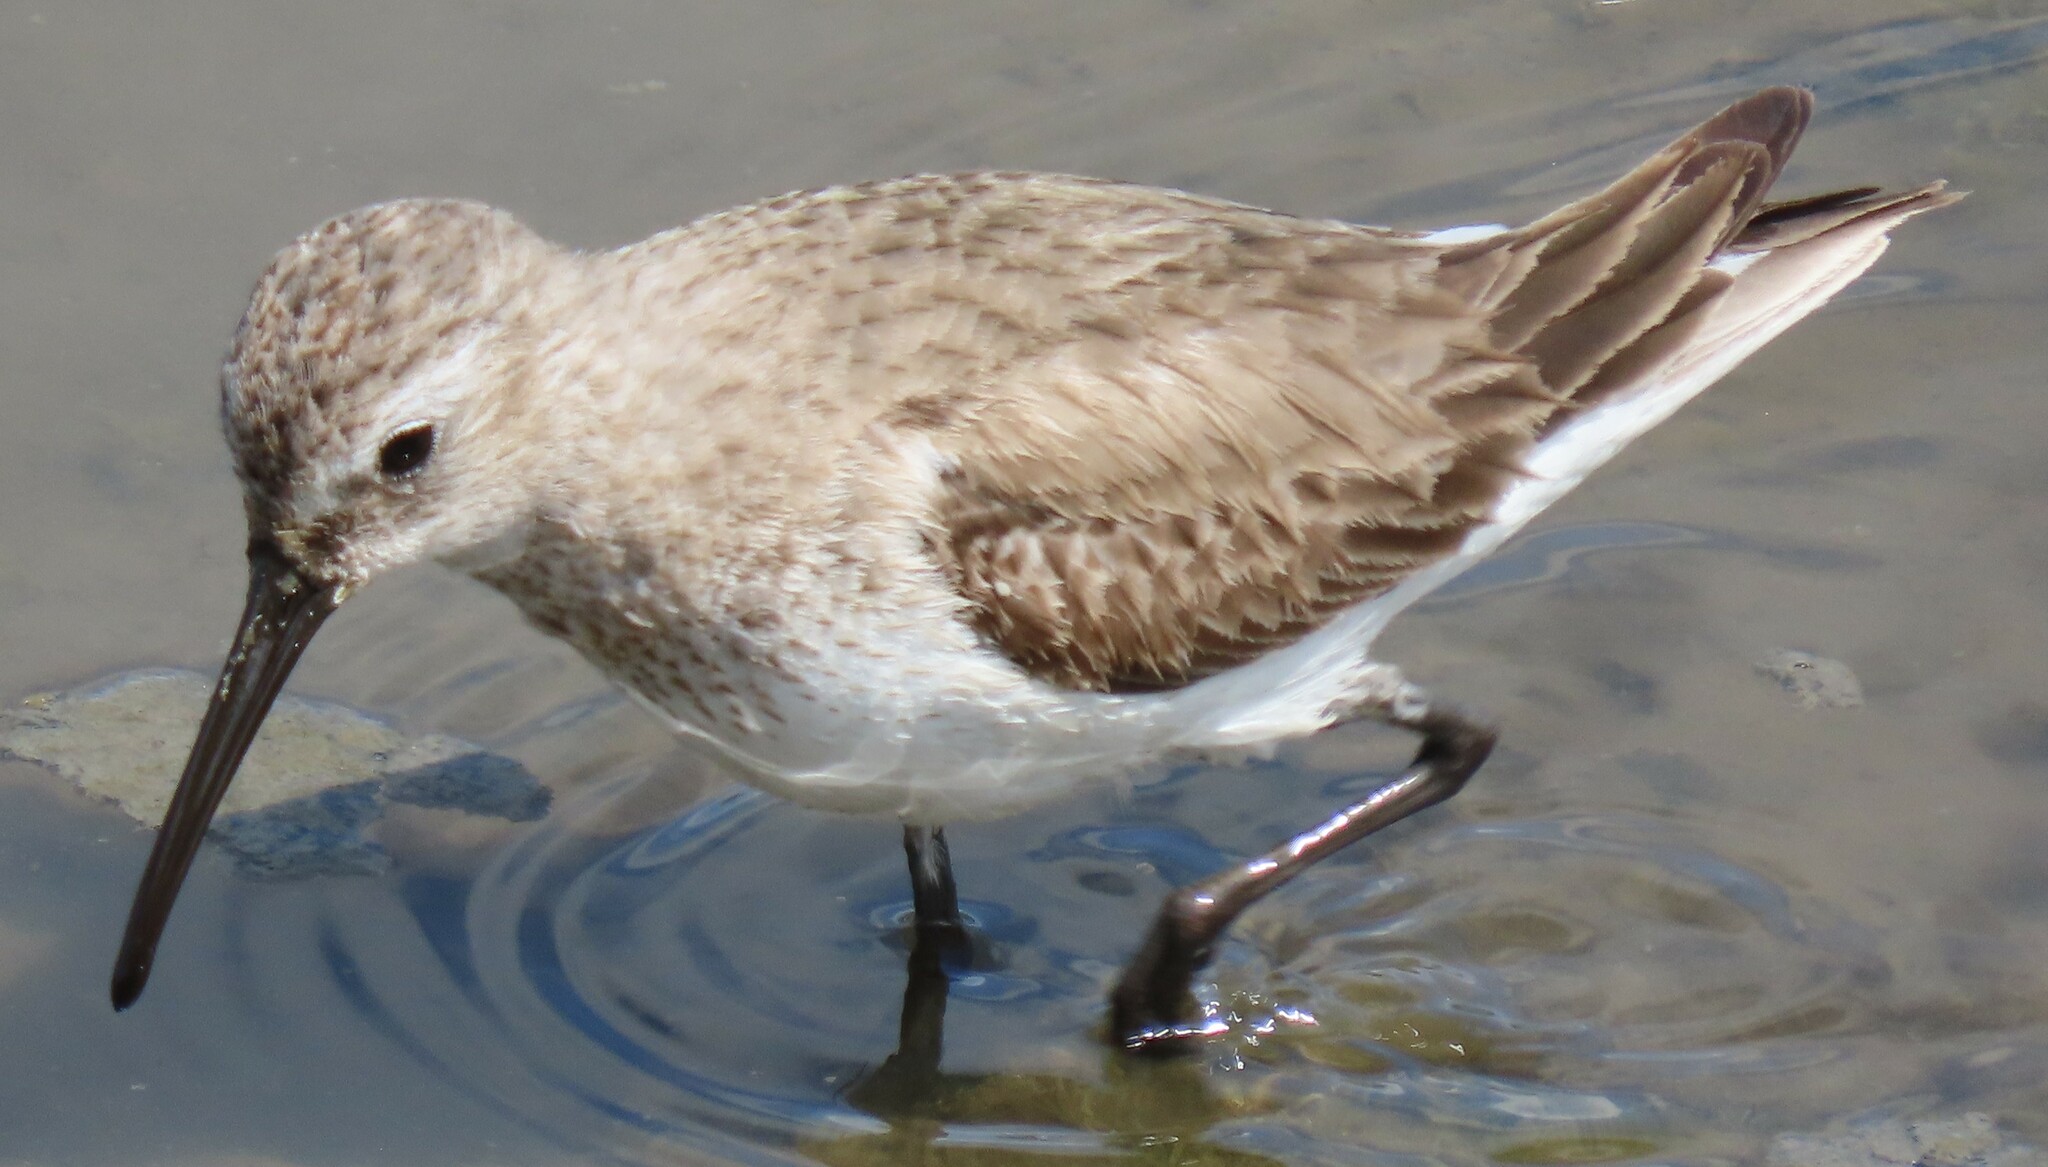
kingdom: Animalia
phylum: Chordata
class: Aves
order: Charadriiformes
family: Scolopacidae
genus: Calidris
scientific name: Calidris alpina
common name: Dunlin
